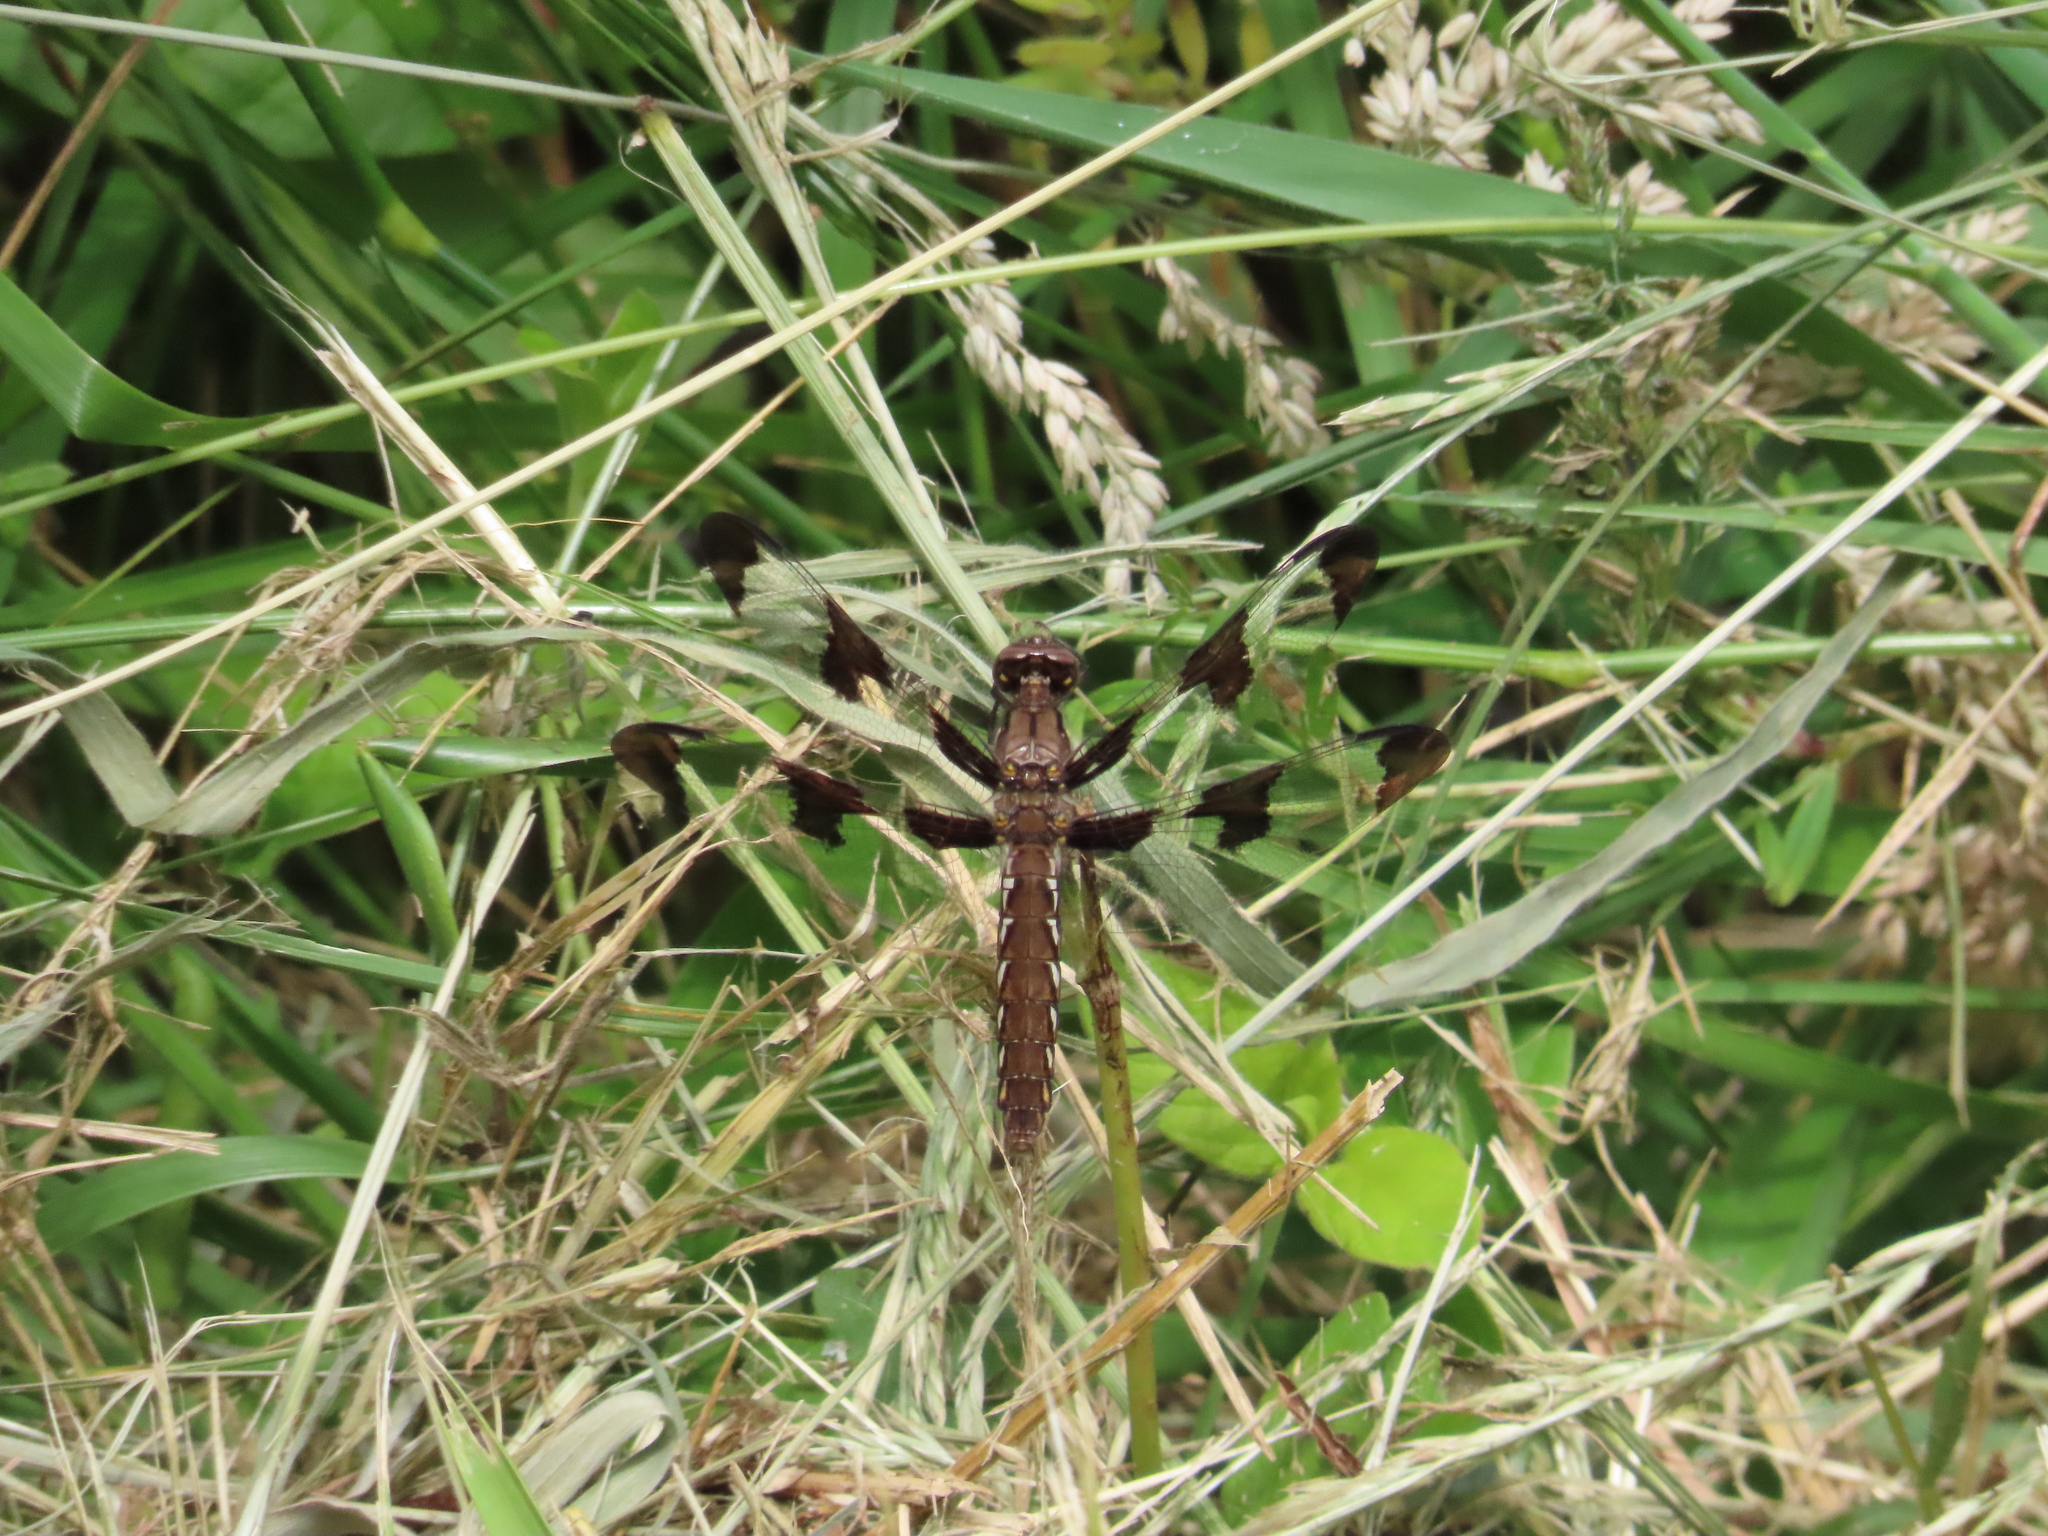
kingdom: Animalia
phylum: Arthropoda
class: Insecta
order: Odonata
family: Libellulidae
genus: Plathemis
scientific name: Plathemis lydia
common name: Common whitetail
